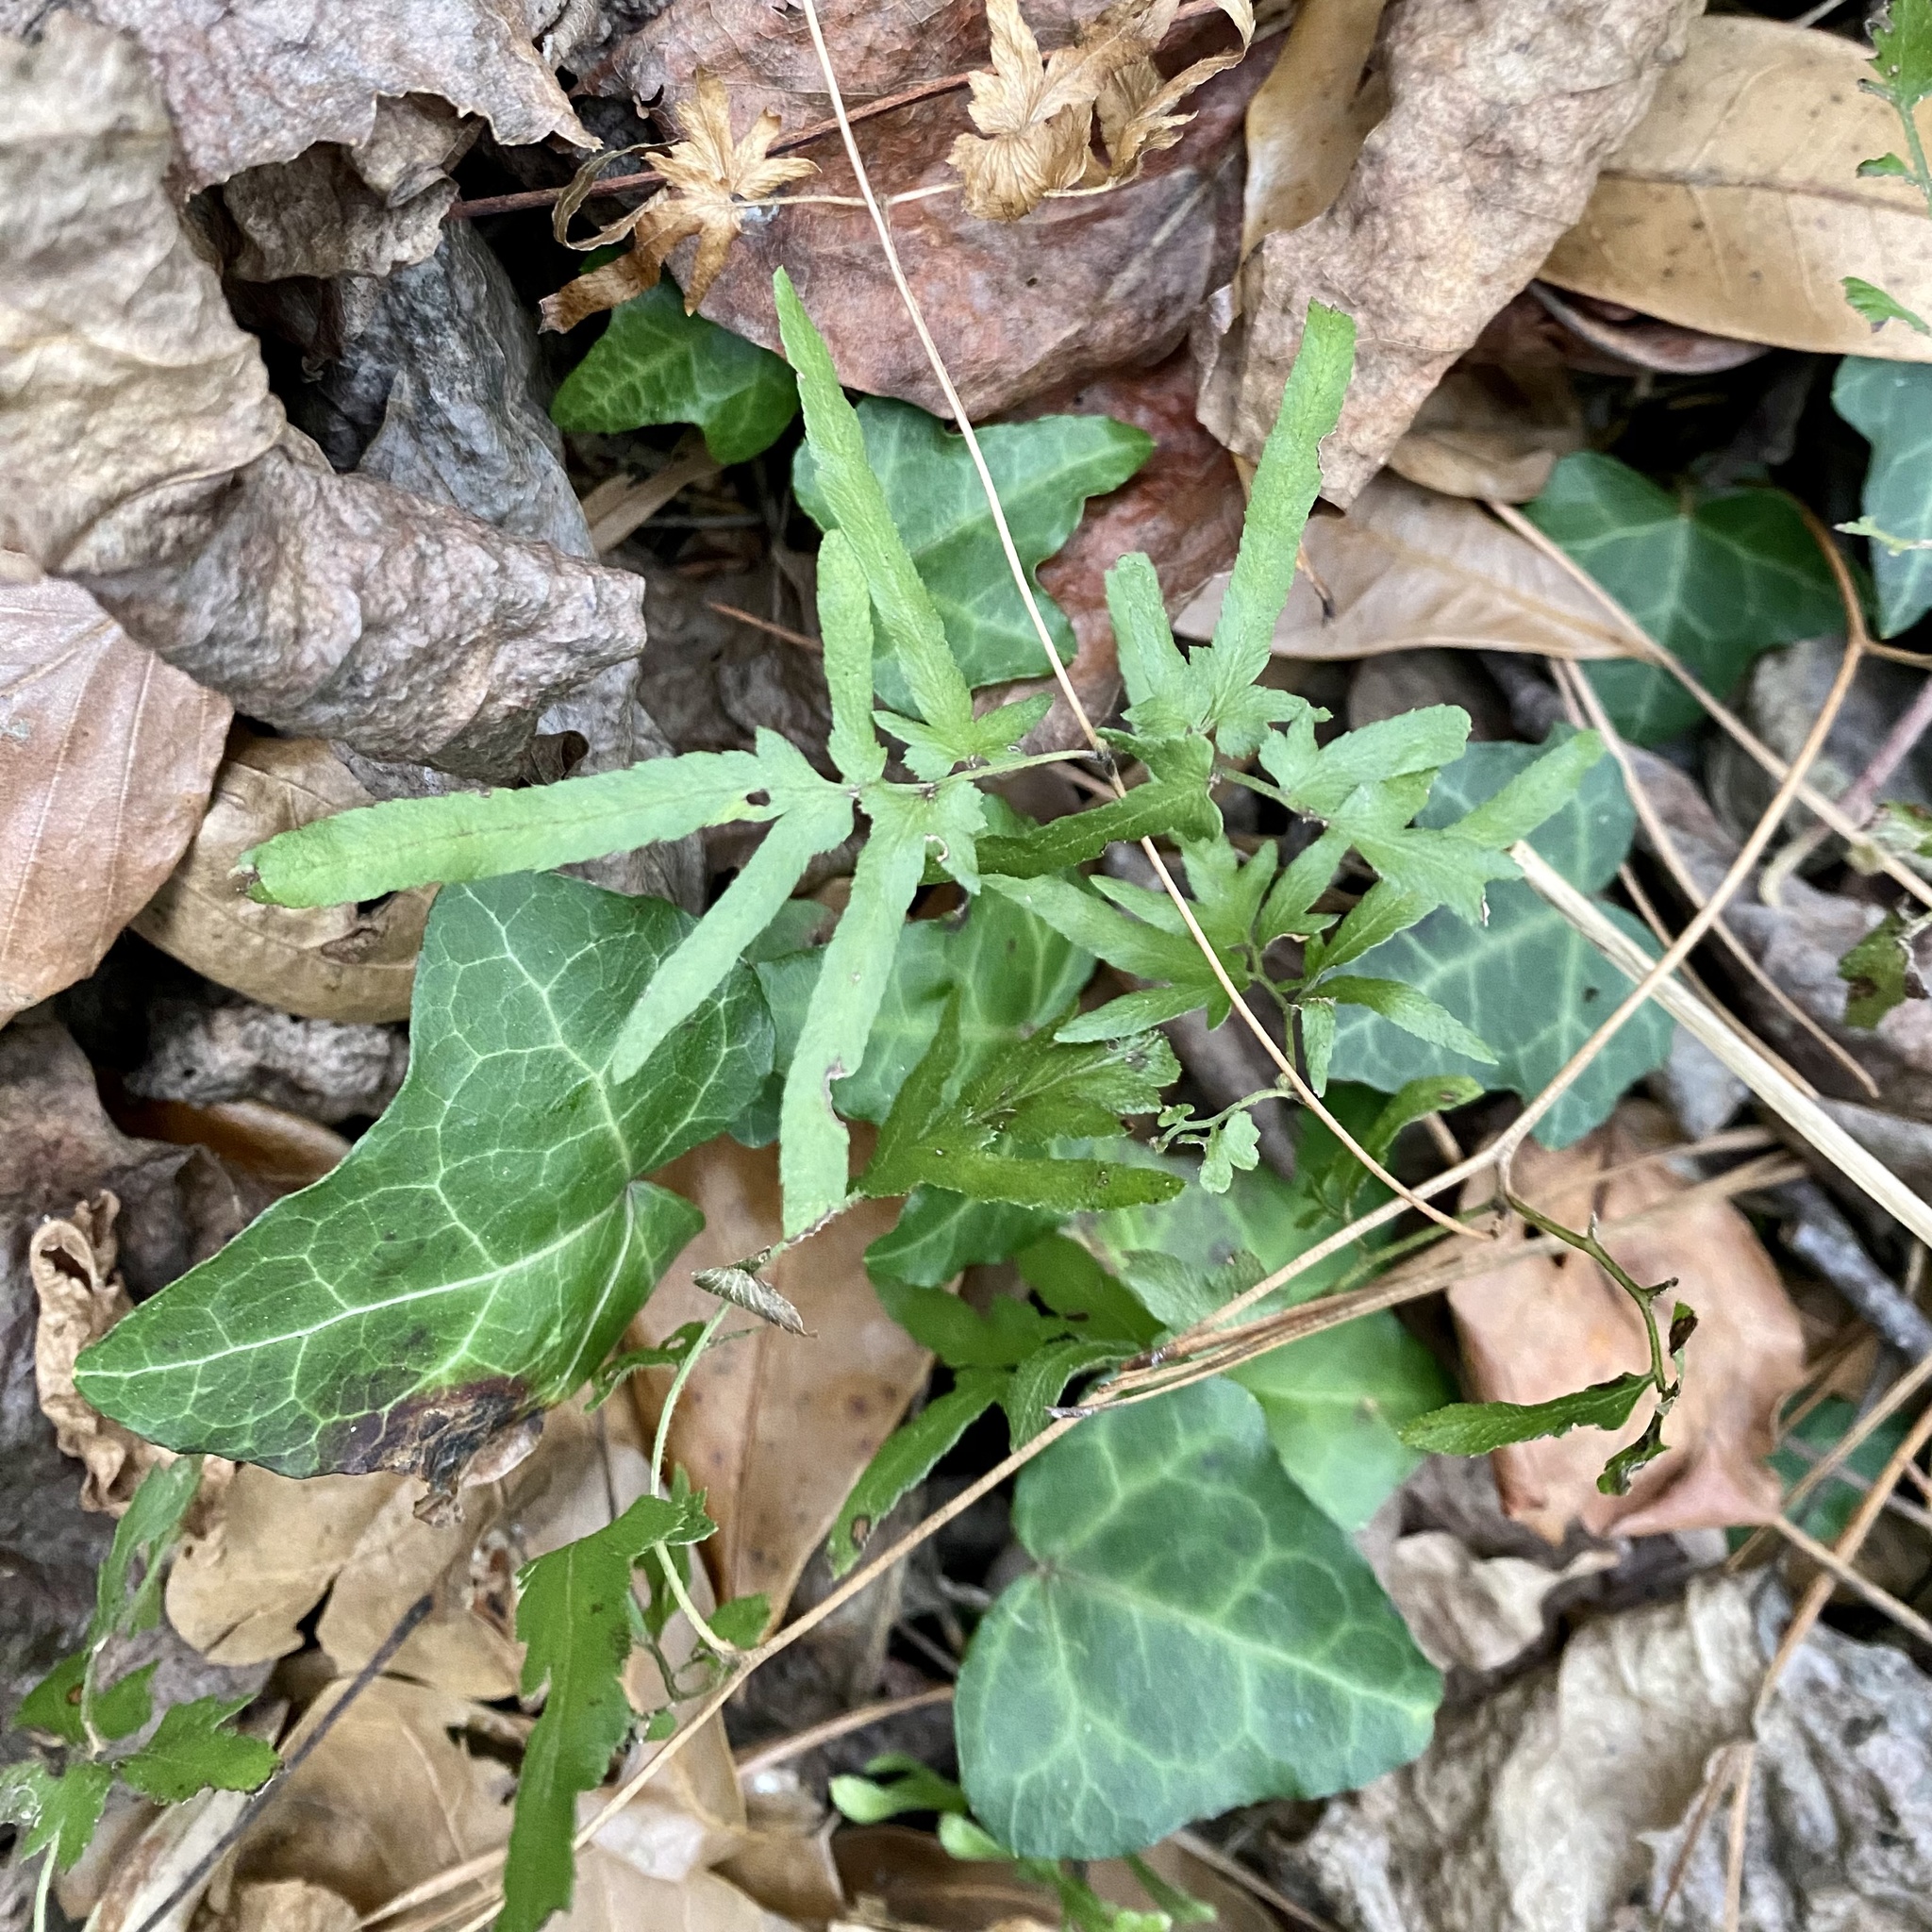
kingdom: Plantae
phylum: Tracheophyta
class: Polypodiopsida
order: Schizaeales
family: Lygodiaceae
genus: Lygodium
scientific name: Lygodium japonicum
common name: Japanese climbing fern
